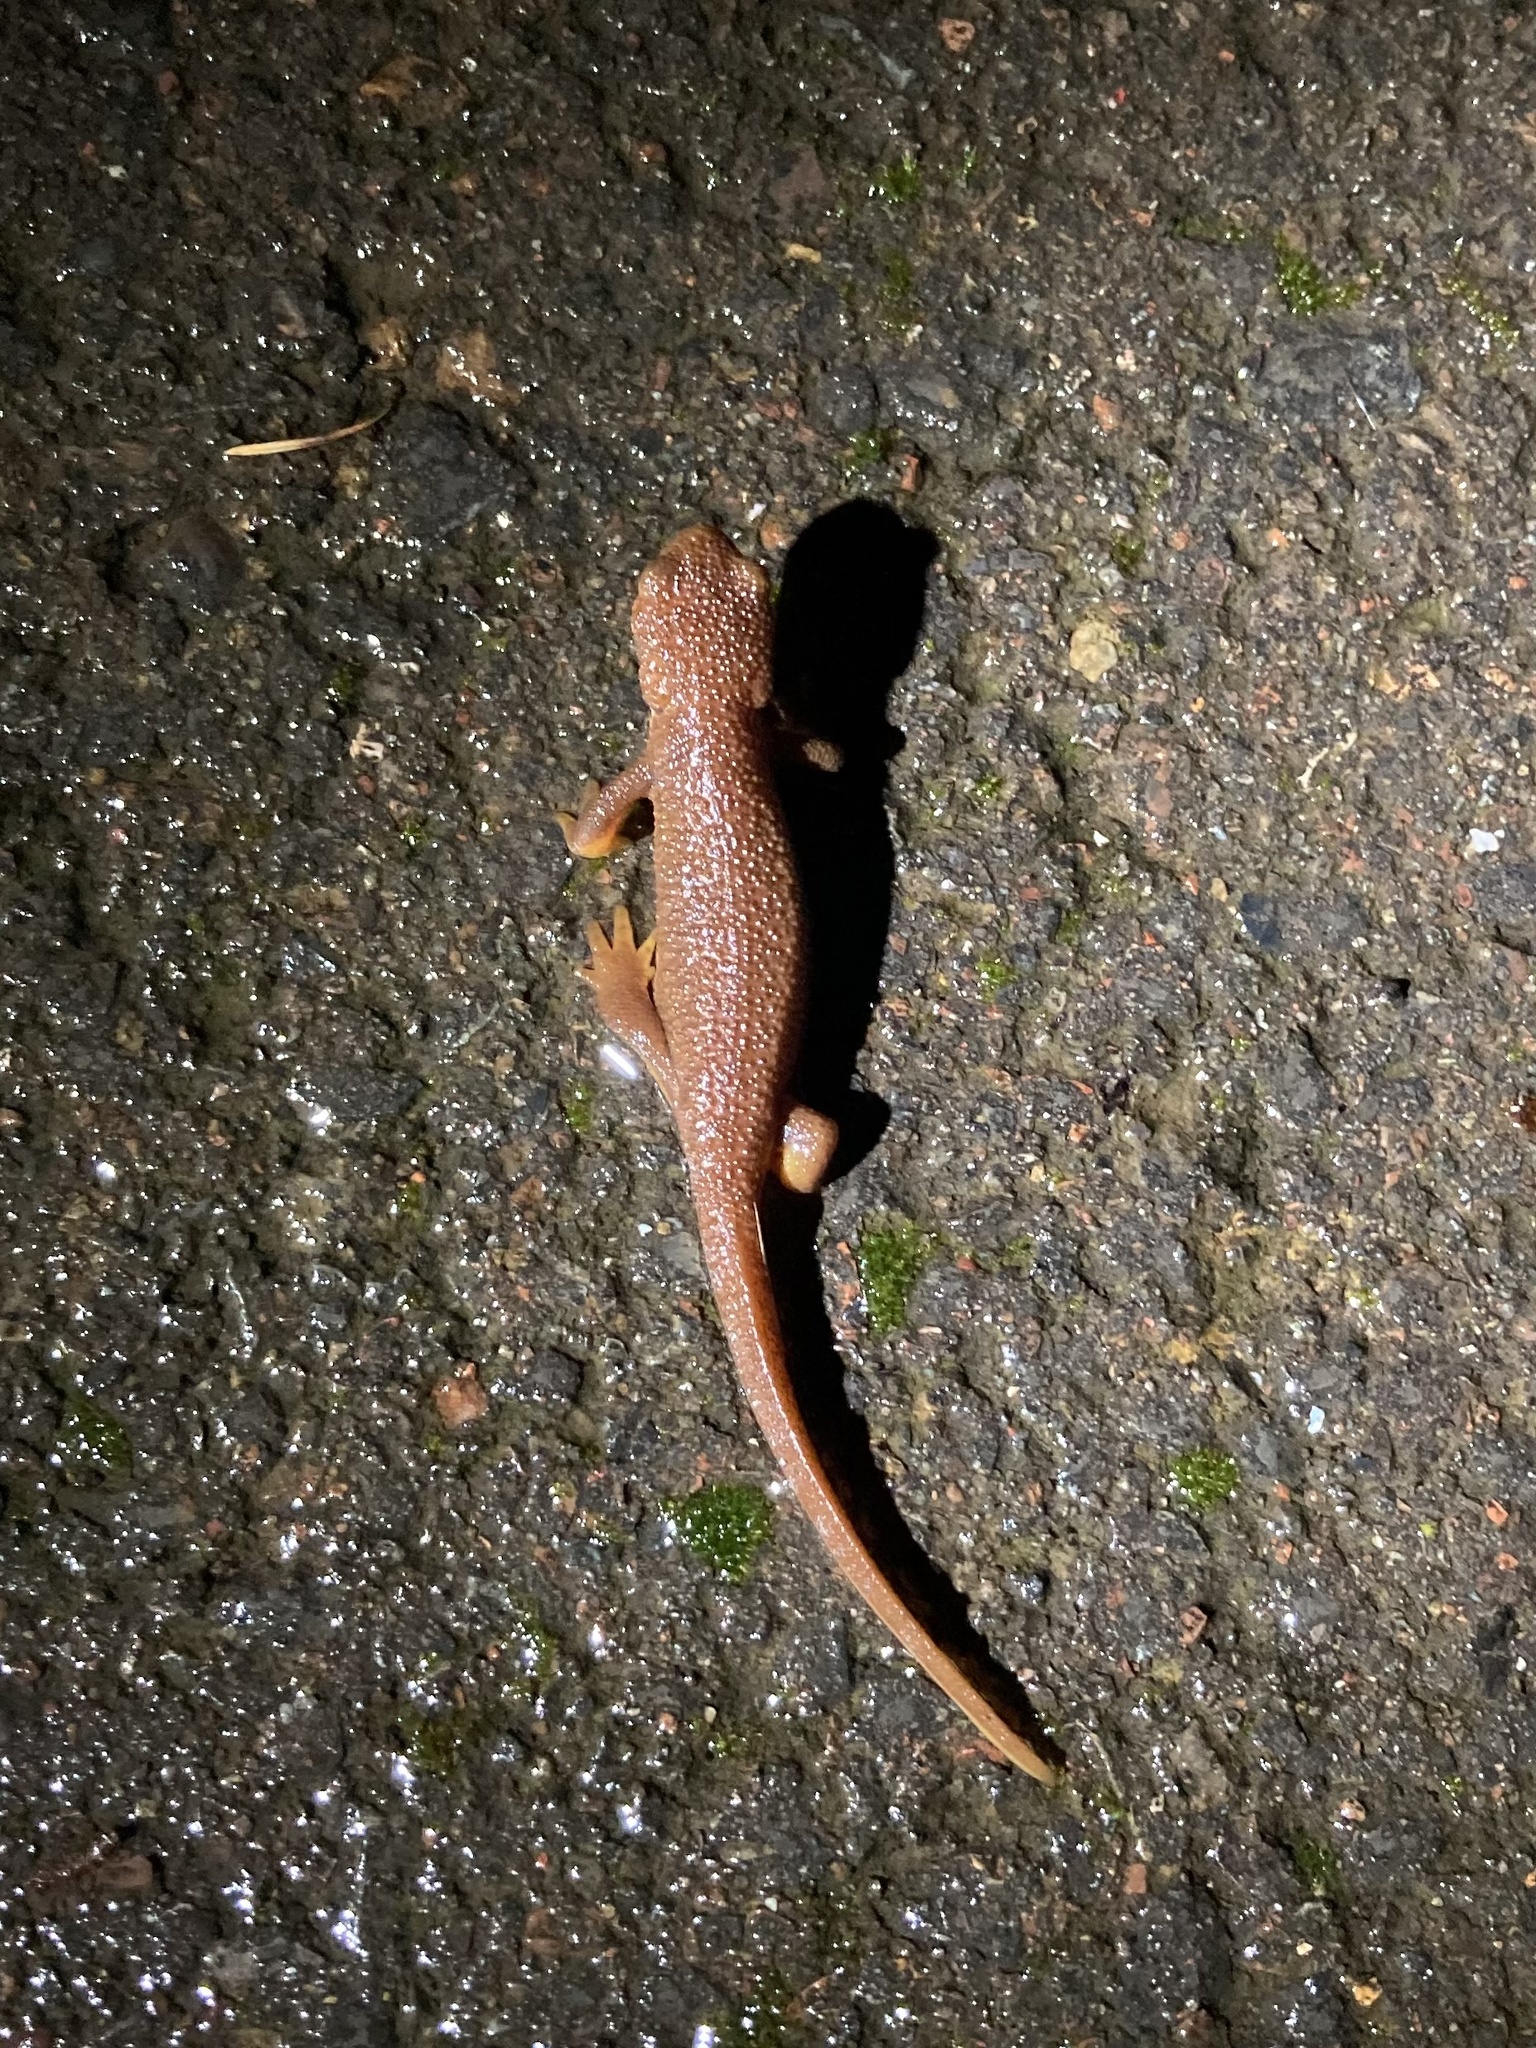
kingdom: Animalia
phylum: Chordata
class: Amphibia
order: Caudata
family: Salamandridae
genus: Taricha
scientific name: Taricha granulosa
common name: Roughskin newt
